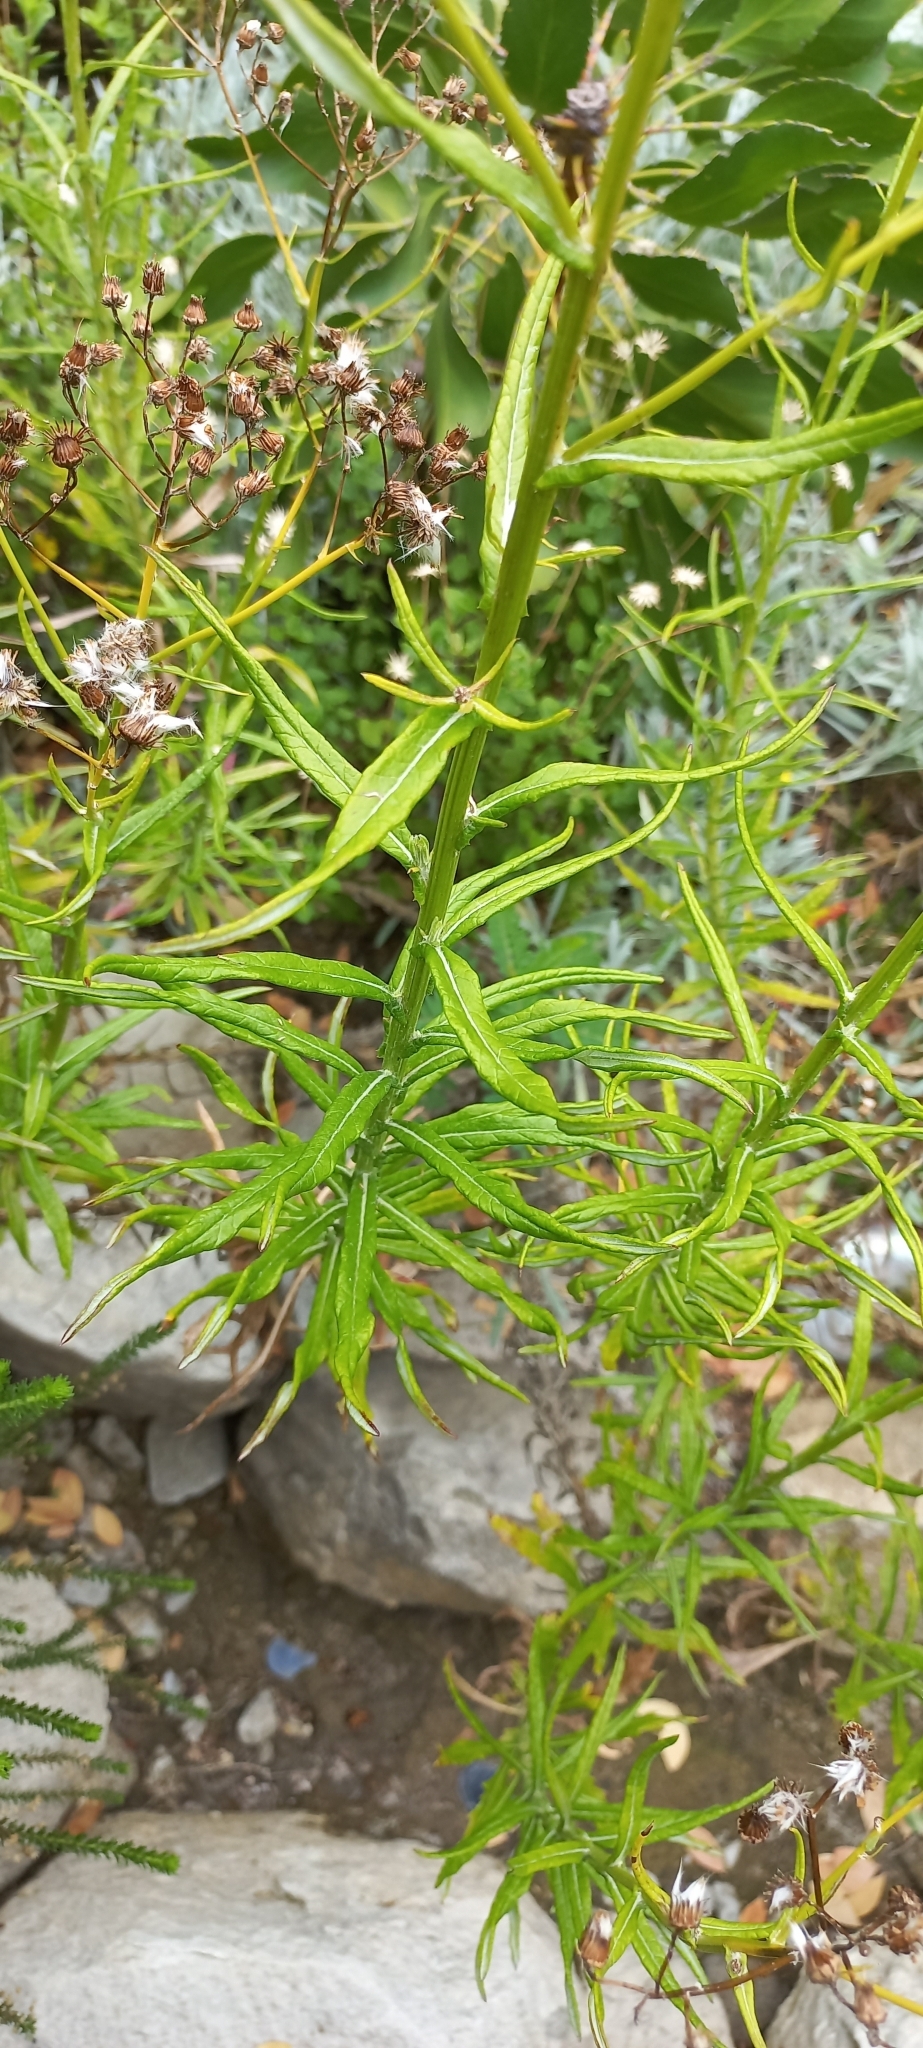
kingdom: Plantae
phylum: Tracheophyta
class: Magnoliopsida
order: Asterales
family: Asteraceae
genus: Senecio
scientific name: Senecio pterophorus
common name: Shoddy ragwort
